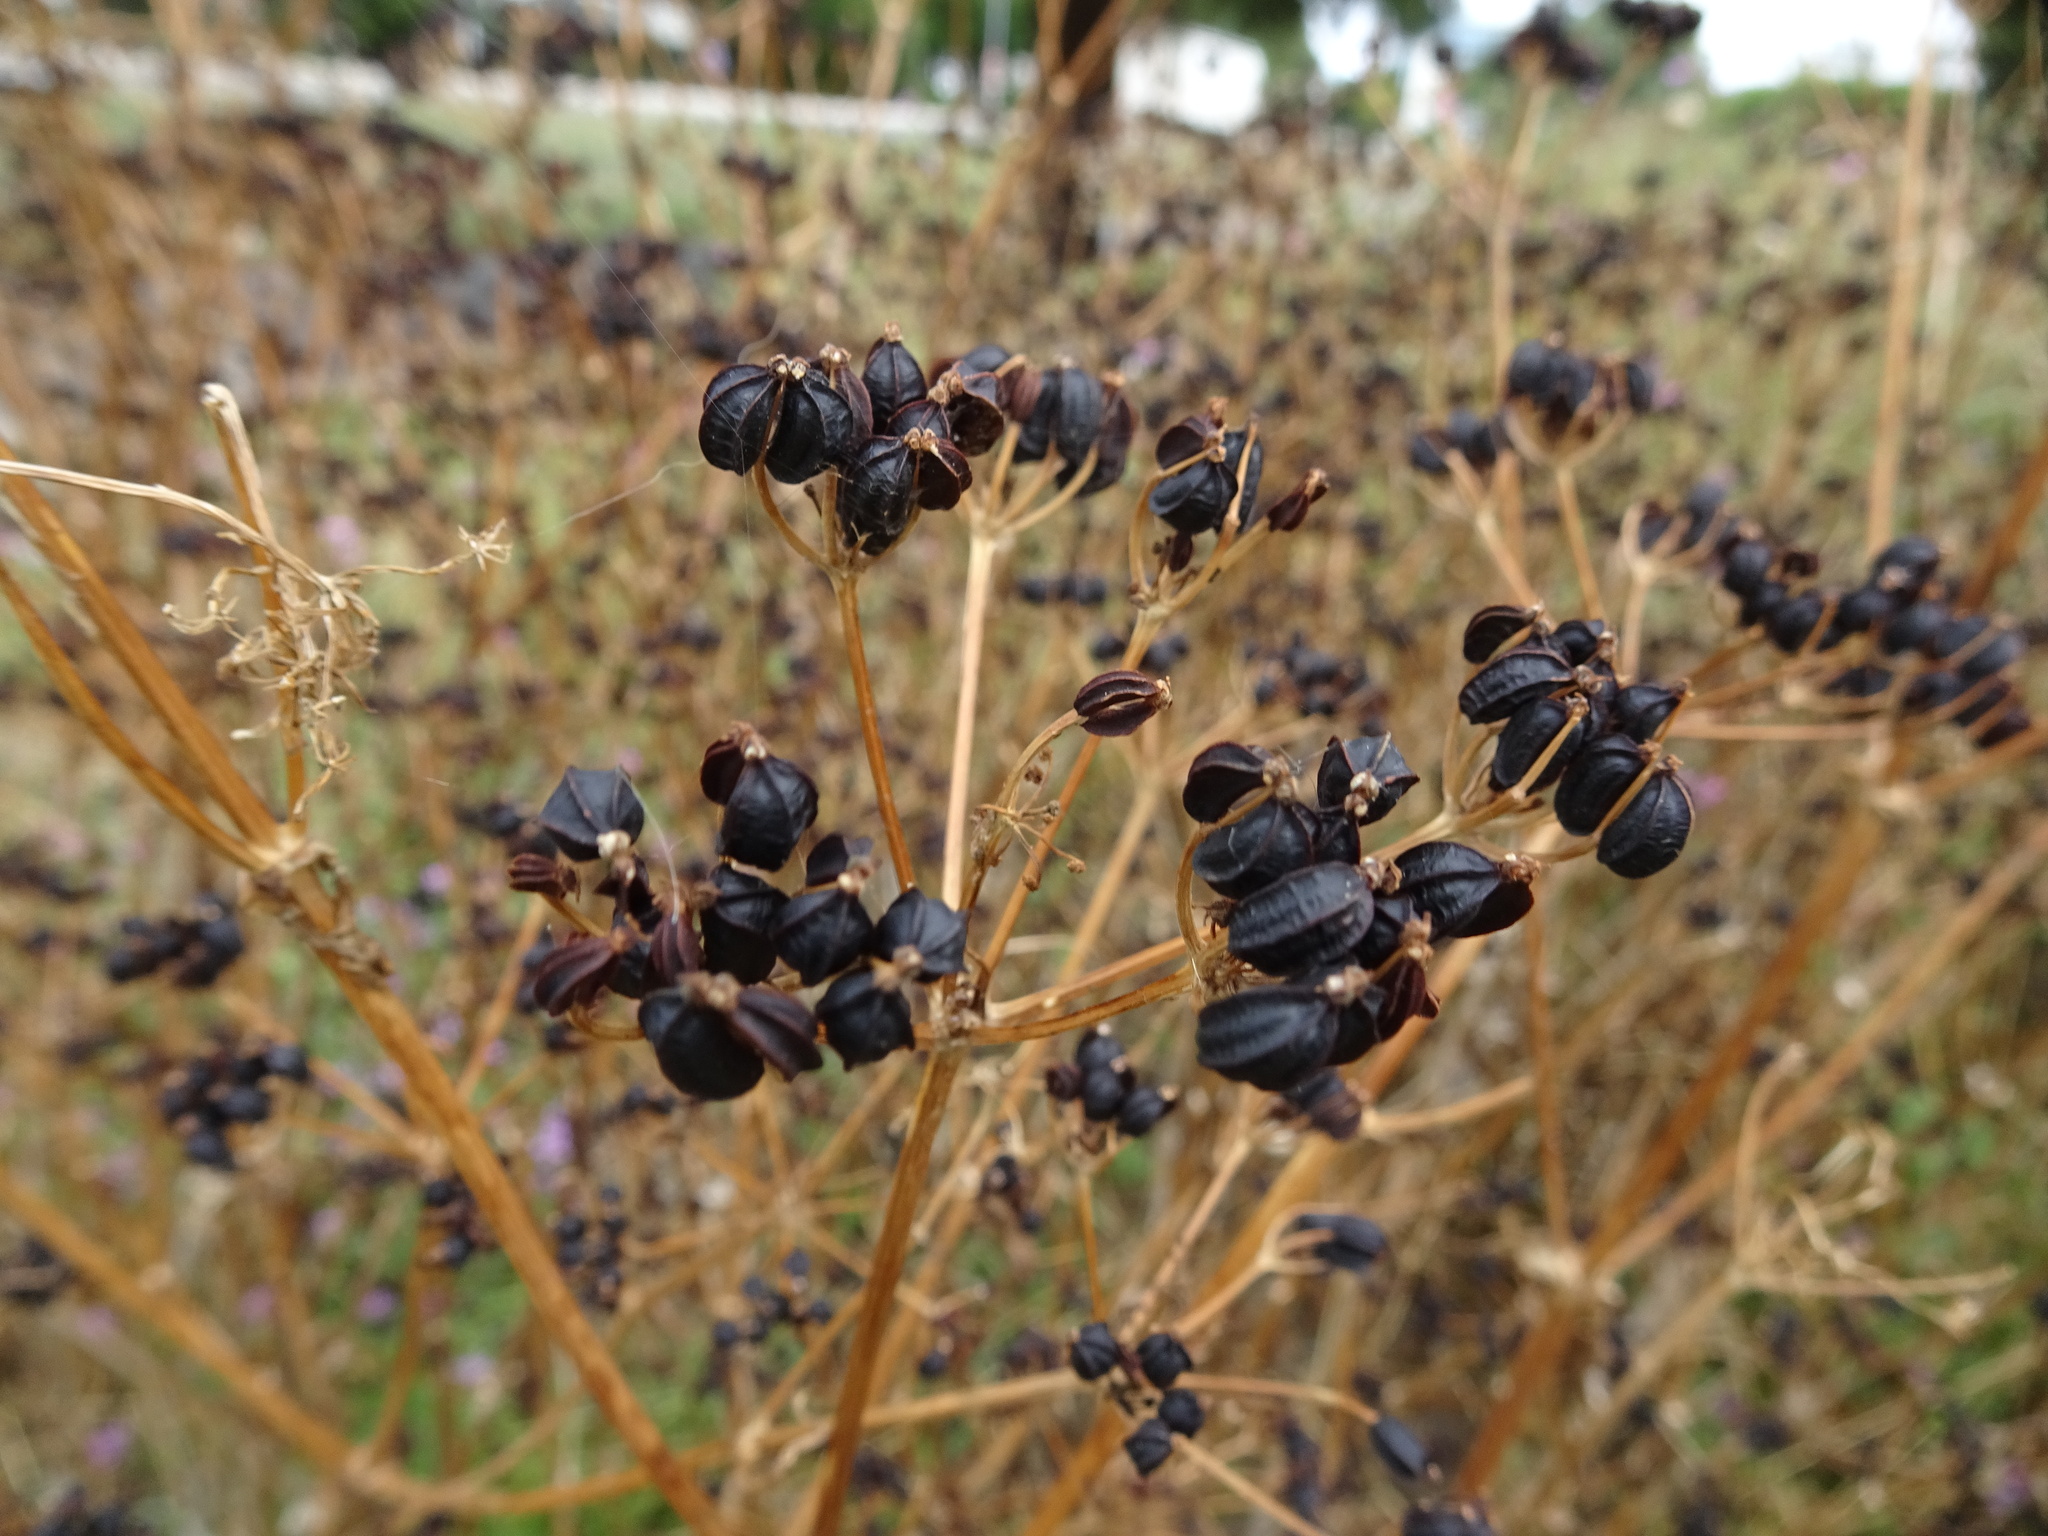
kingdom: Plantae
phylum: Tracheophyta
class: Magnoliopsida
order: Apiales
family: Apiaceae
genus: Smyrnium
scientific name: Smyrnium olusatrum
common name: Alexanders
